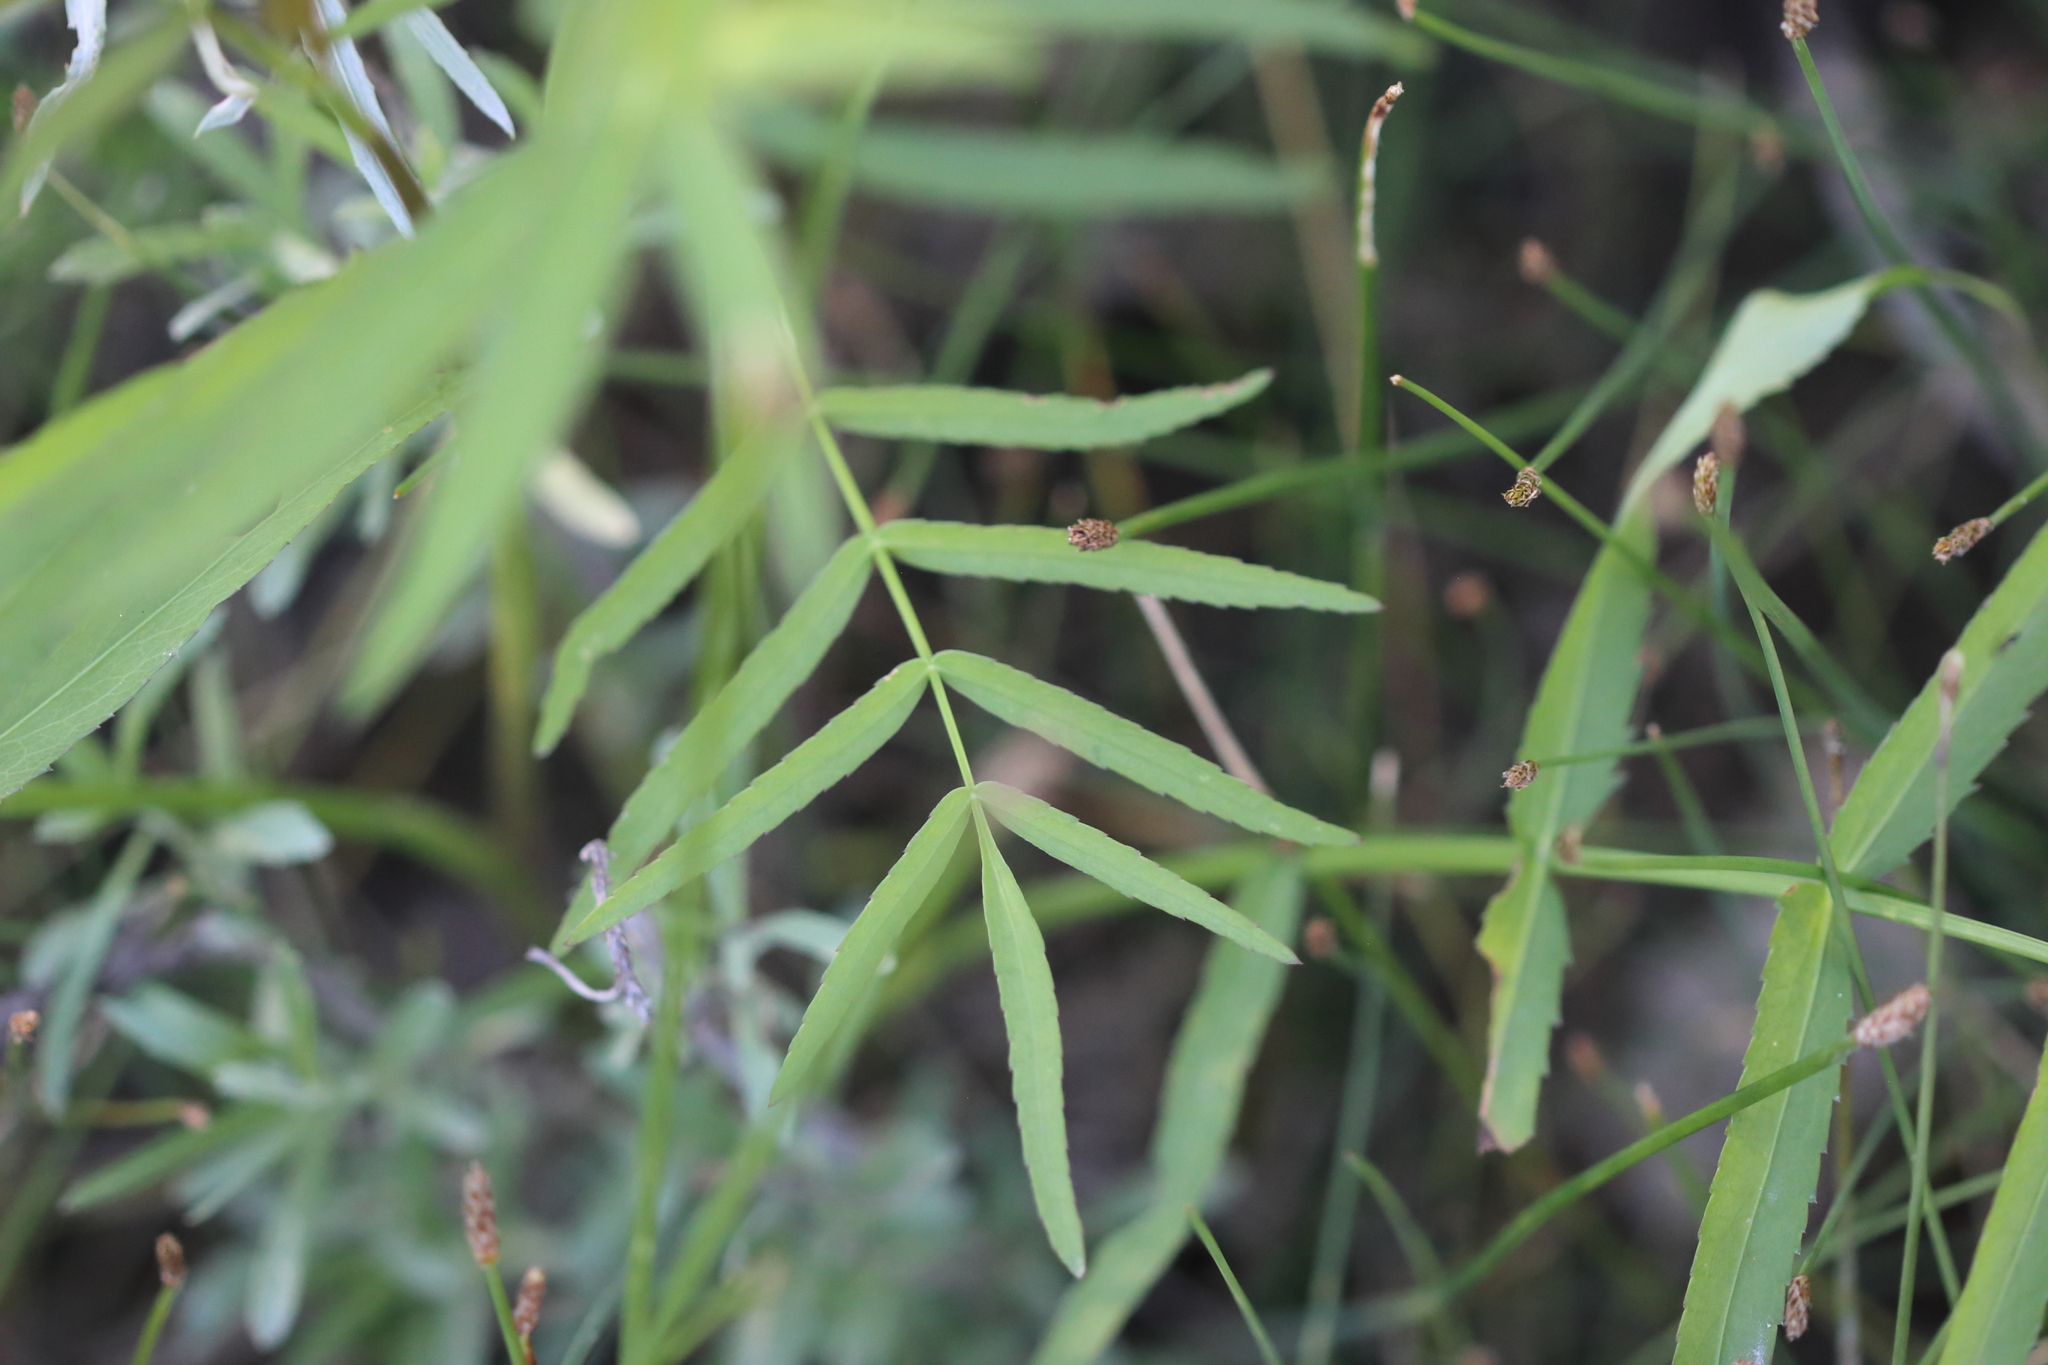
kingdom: Plantae
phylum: Tracheophyta
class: Magnoliopsida
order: Apiales
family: Apiaceae
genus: Sium
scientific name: Sium suave
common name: Hemlock water-parsnip
